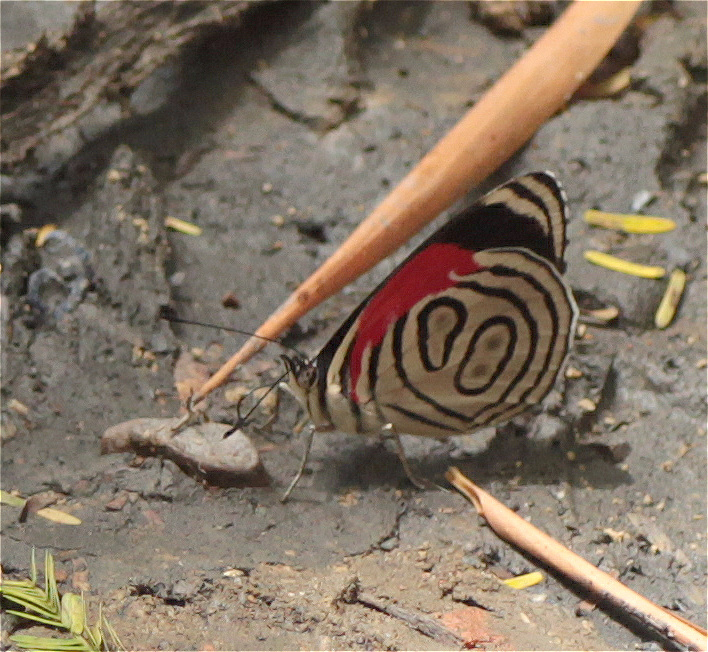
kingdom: Animalia
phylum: Arthropoda
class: Insecta
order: Lepidoptera
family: Nymphalidae
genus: Diaethria
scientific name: Diaethria gabaza
